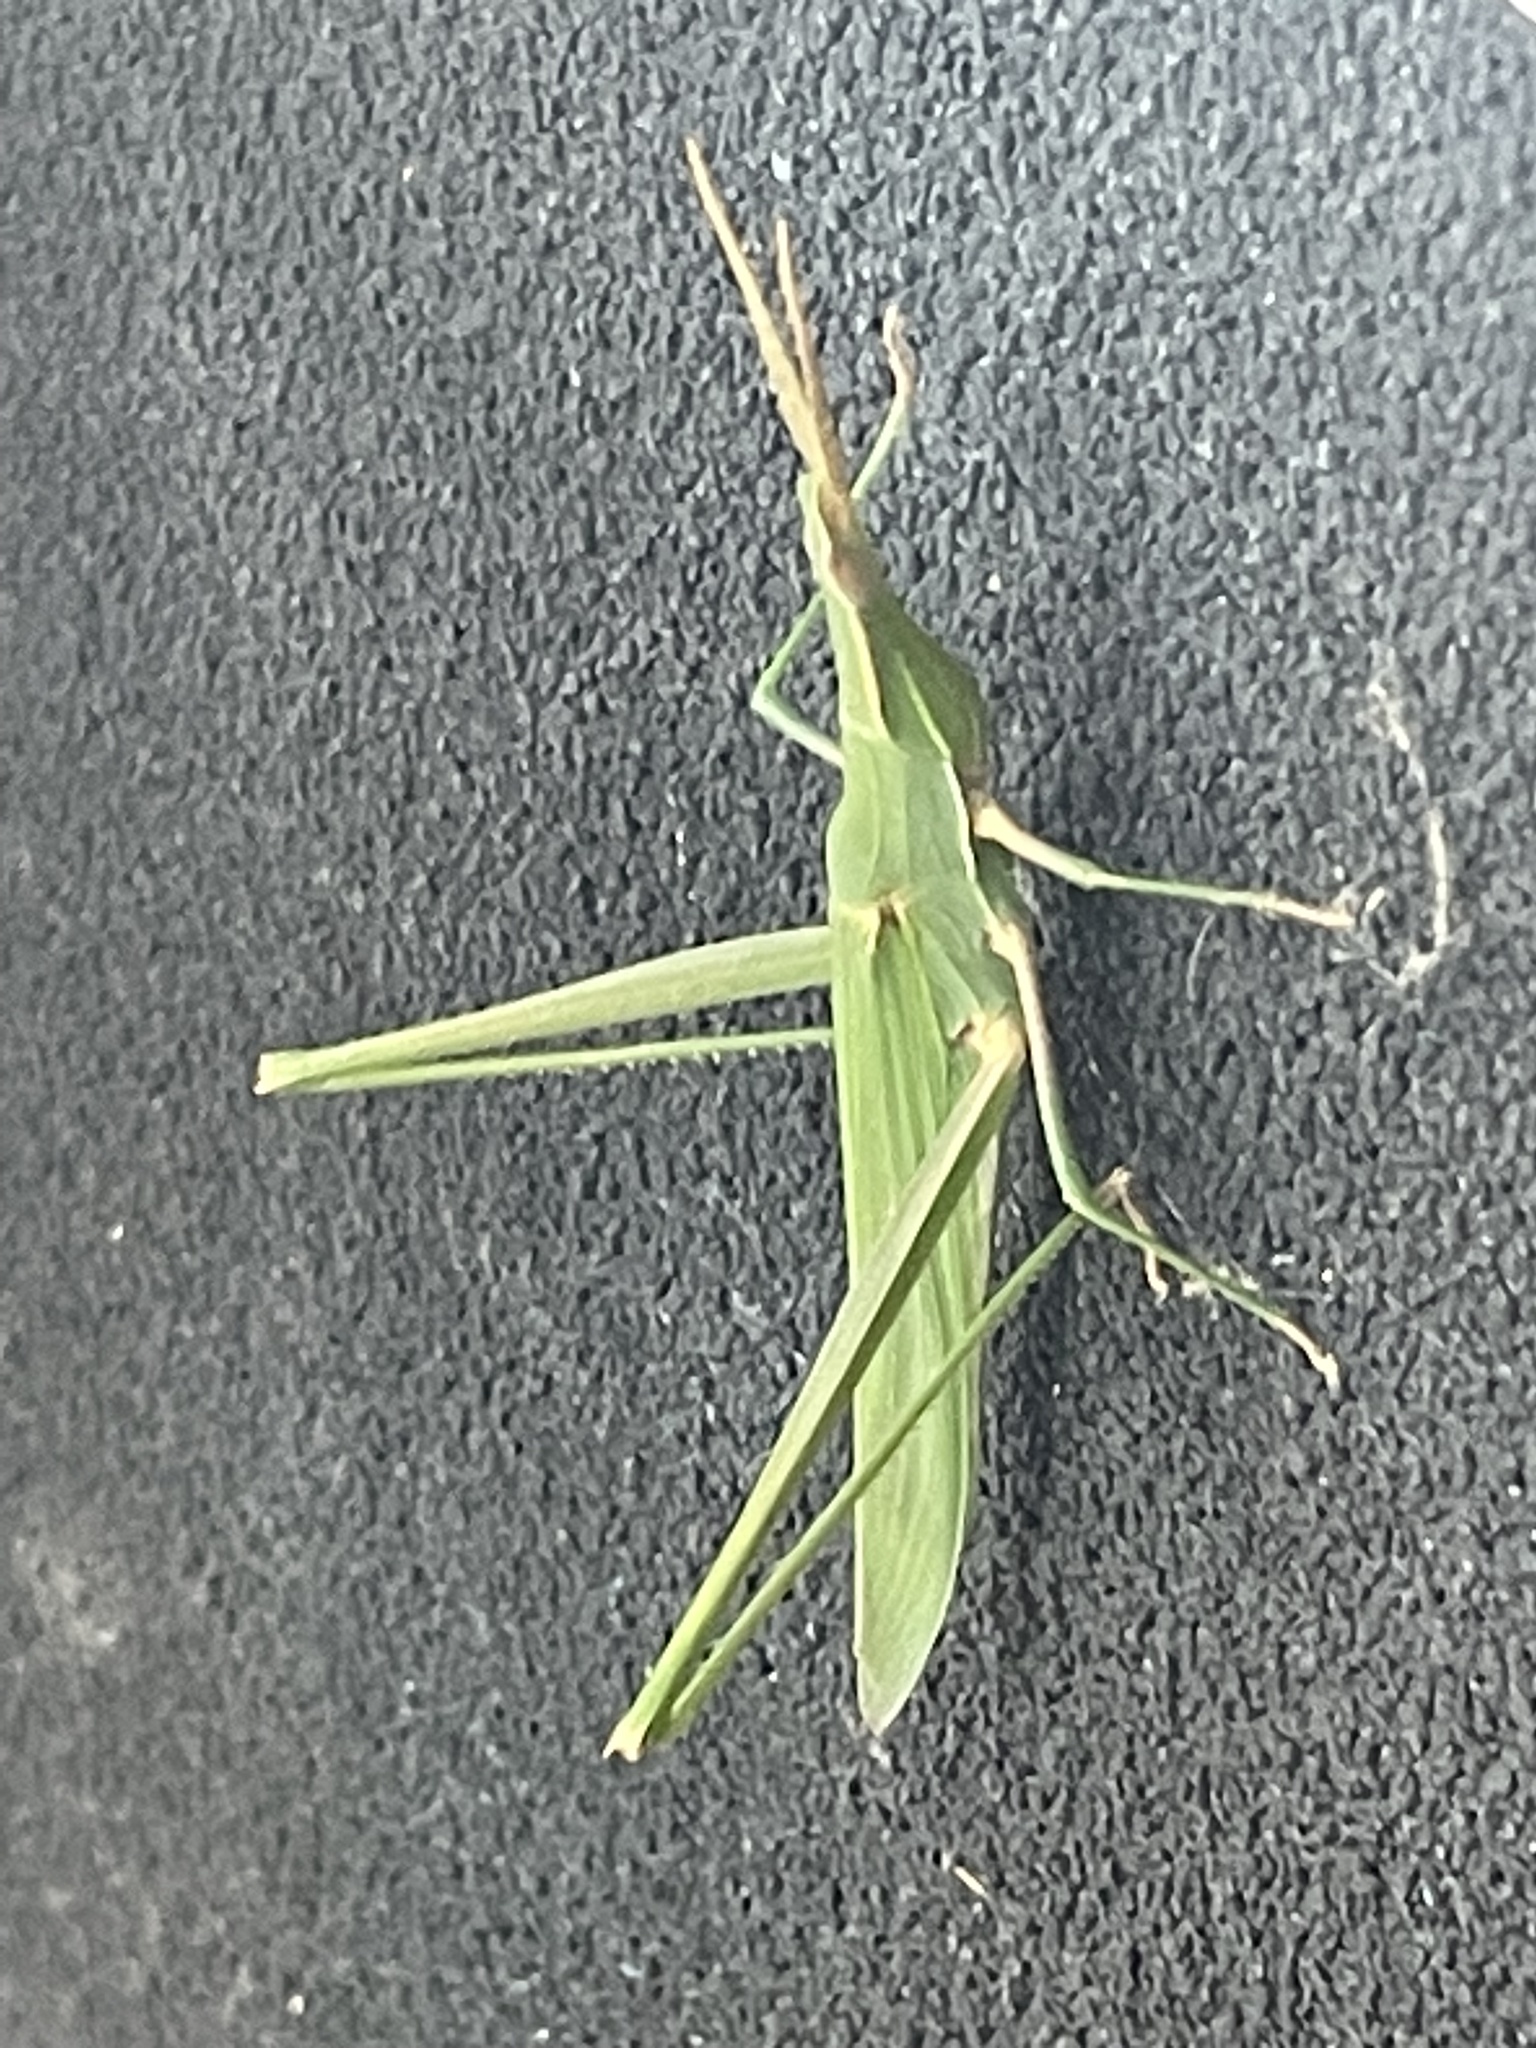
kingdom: Animalia
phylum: Arthropoda
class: Insecta
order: Orthoptera
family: Acrididae
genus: Acrida
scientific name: Acrida conica
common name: Giant green slantface
